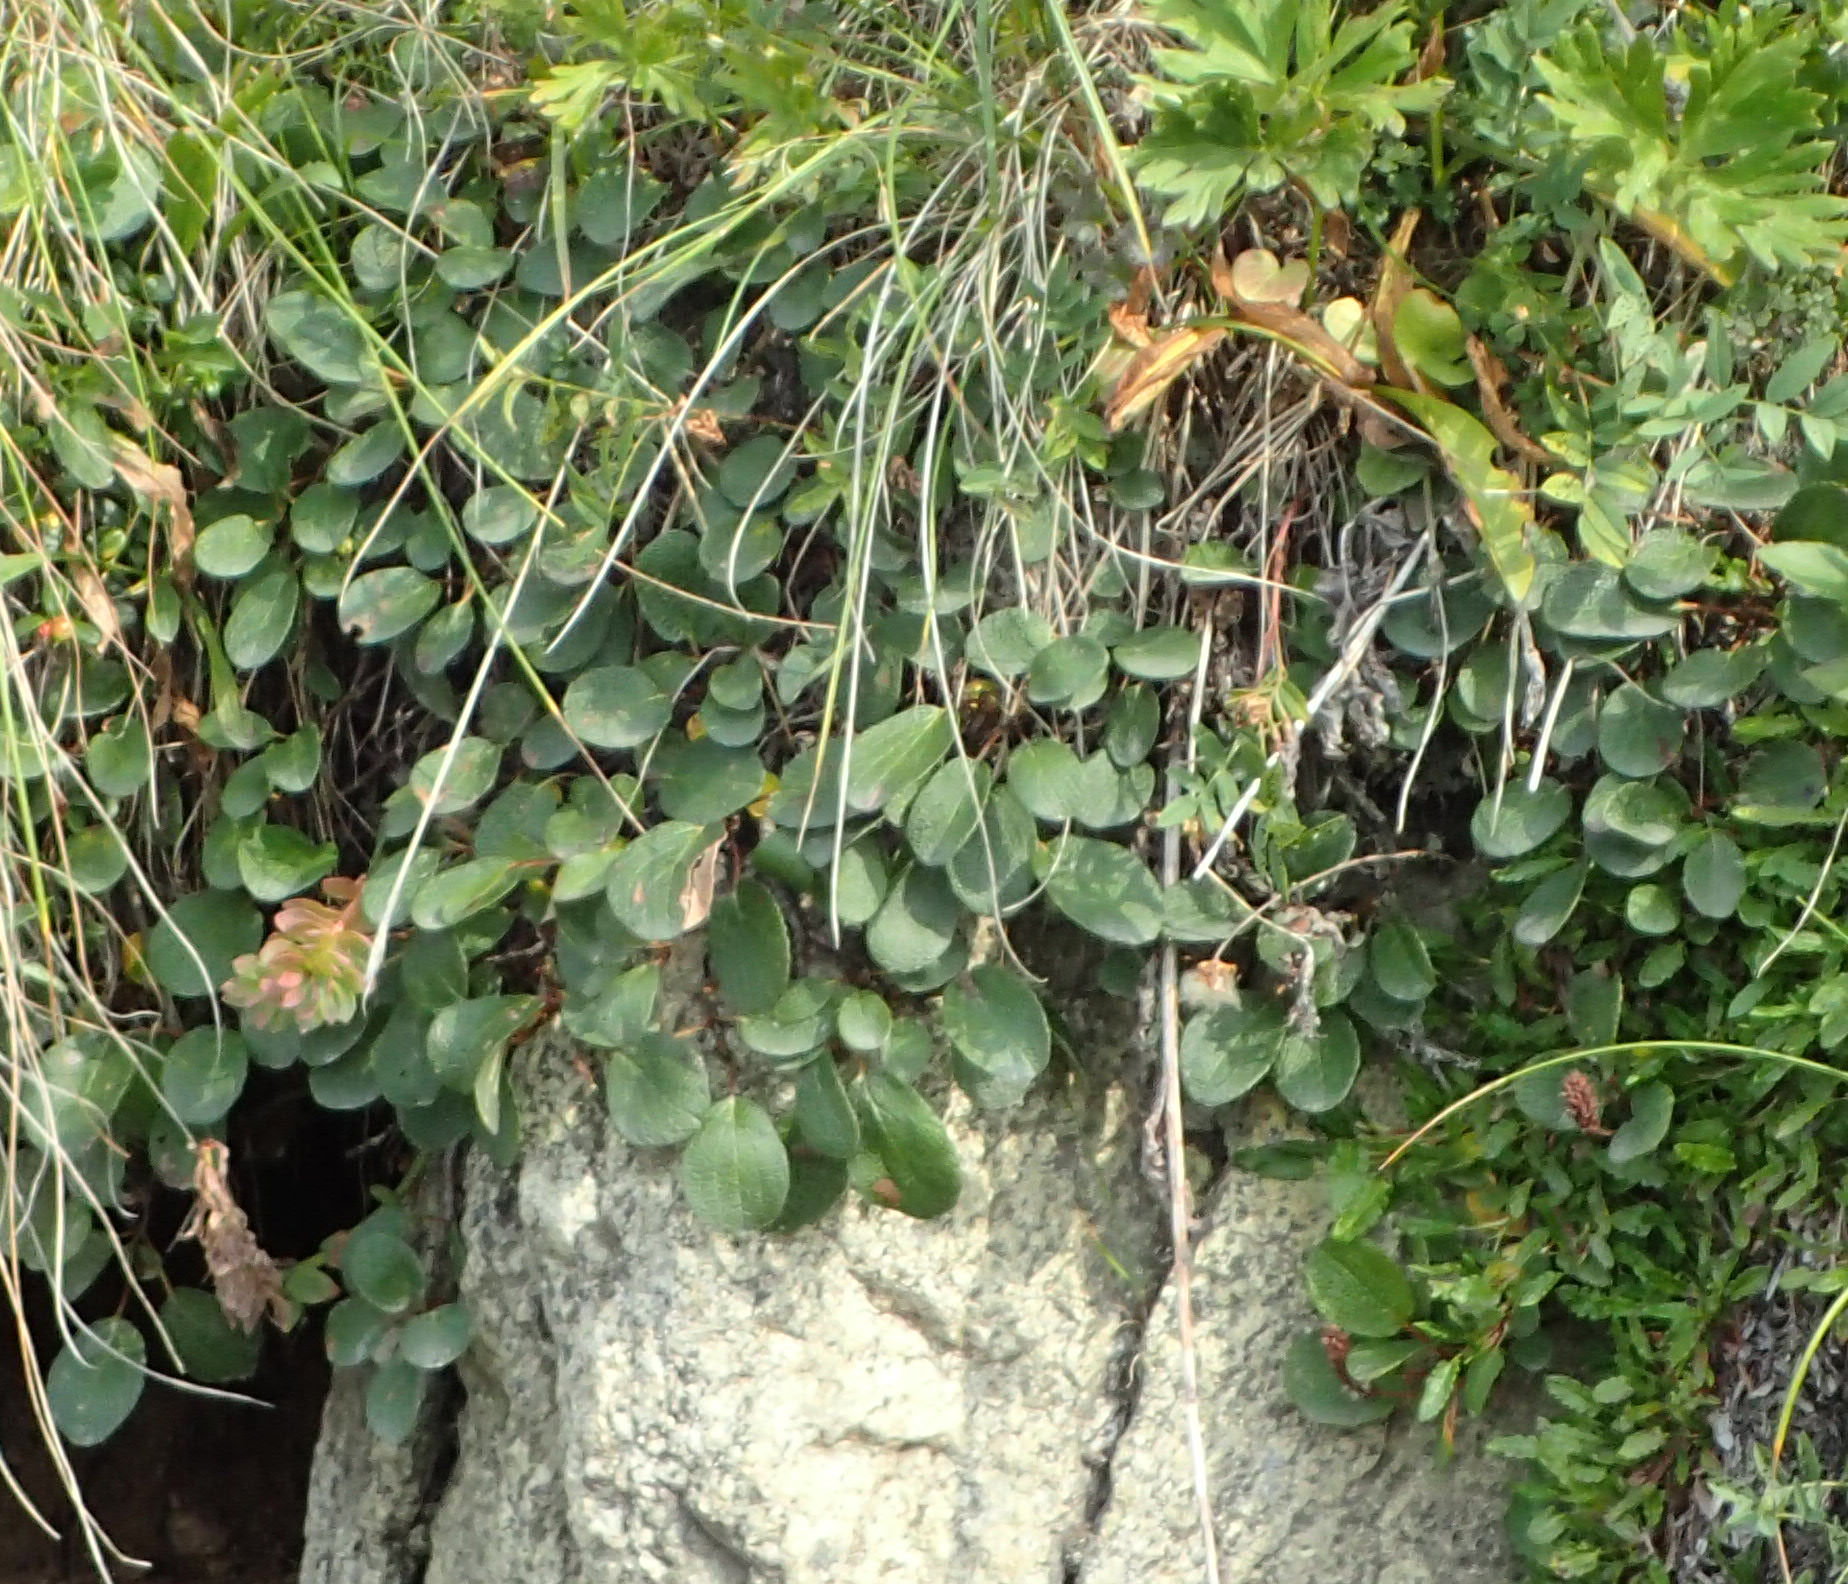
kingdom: Plantae
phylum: Tracheophyta
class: Magnoliopsida
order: Malpighiales
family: Salicaceae
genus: Salix
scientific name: Salix reticulata
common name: Net-leaved willow
